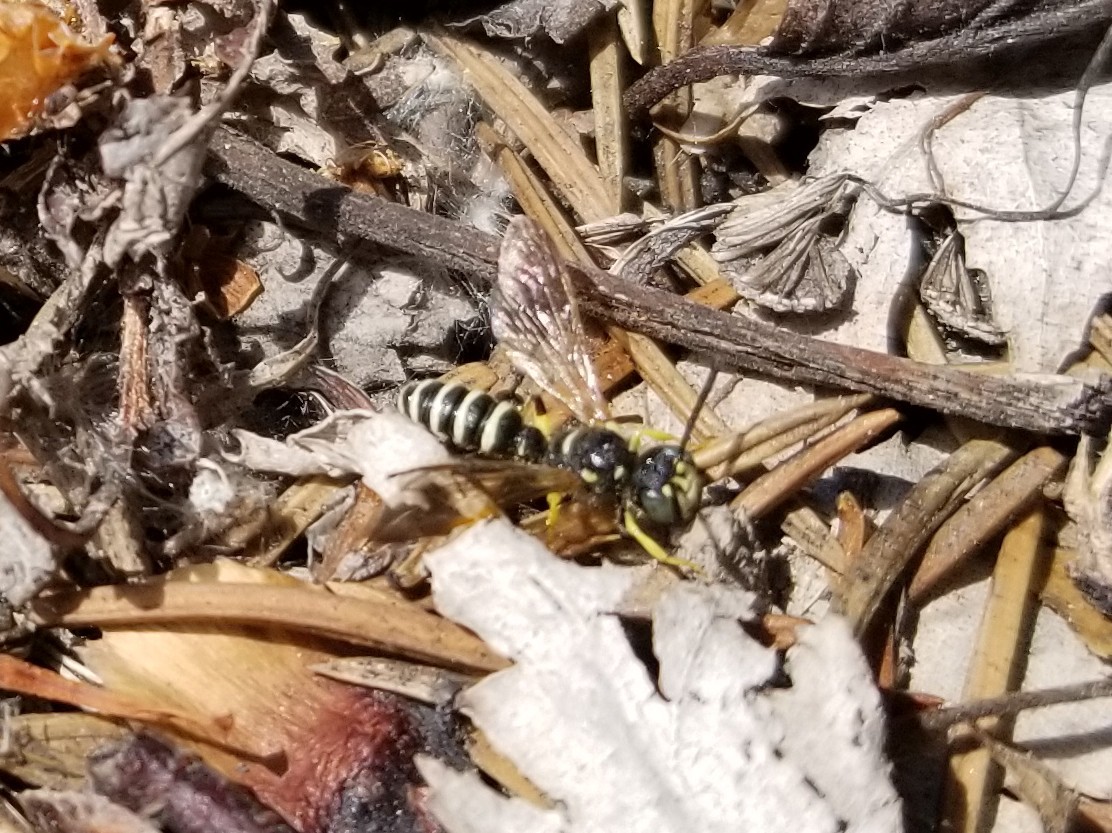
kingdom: Animalia
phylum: Arthropoda
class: Insecta
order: Hymenoptera
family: Crabronidae
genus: Cerceris
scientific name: Cerceris nigrescens
